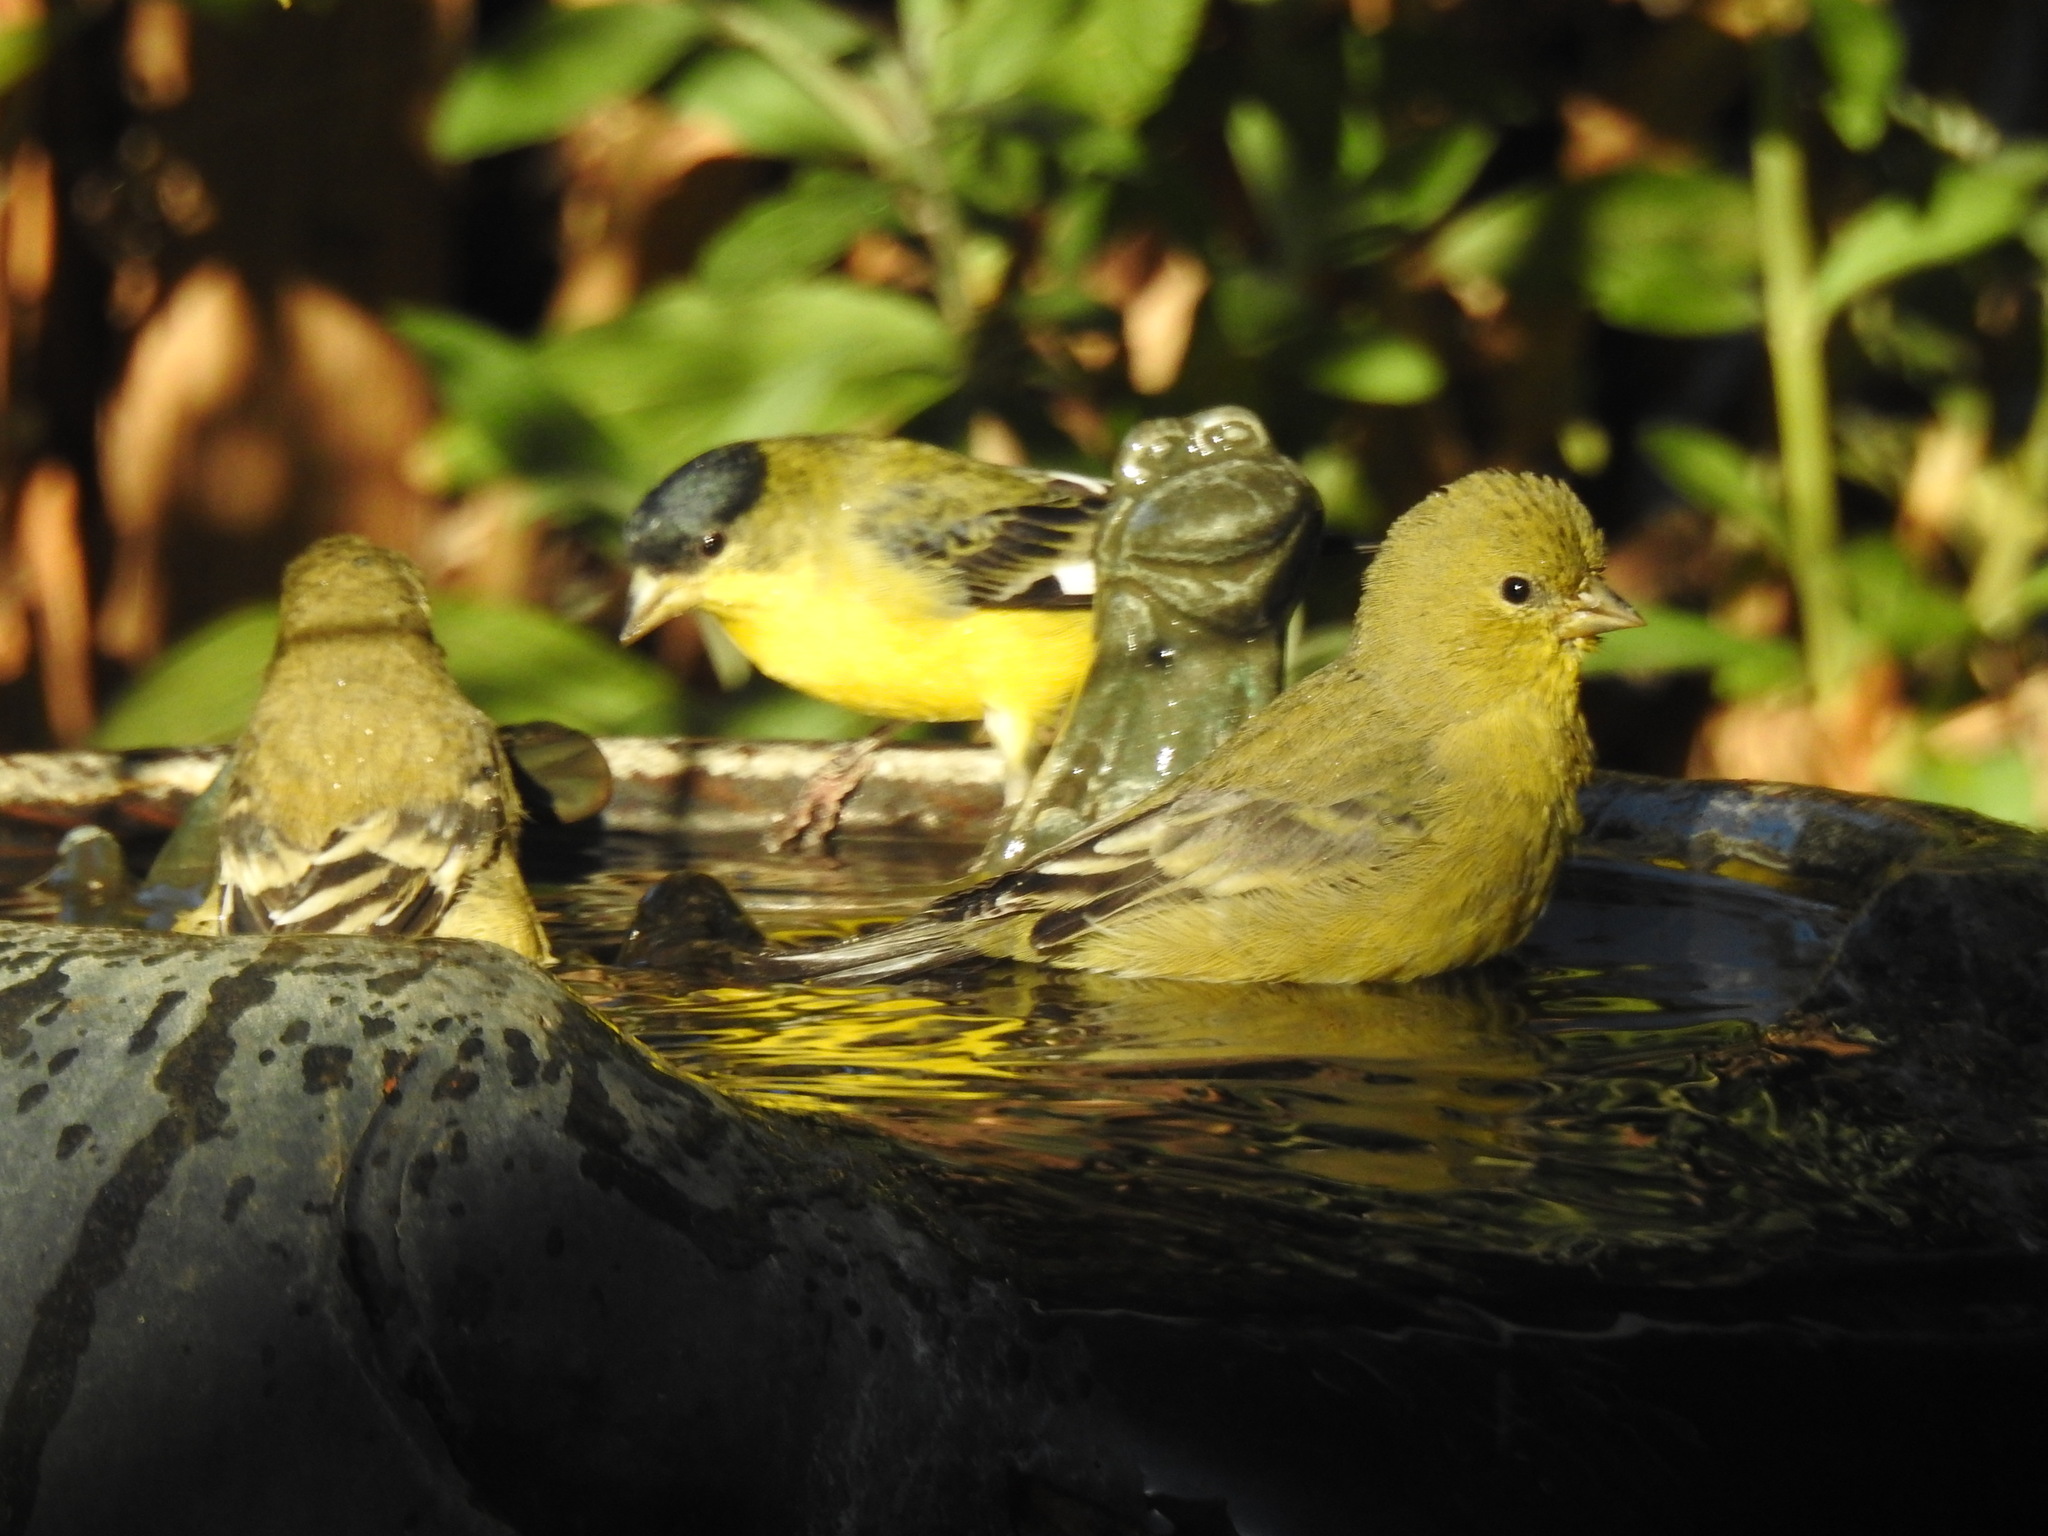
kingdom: Animalia
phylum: Chordata
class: Aves
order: Passeriformes
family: Fringillidae
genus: Spinus
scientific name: Spinus psaltria
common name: Lesser goldfinch
